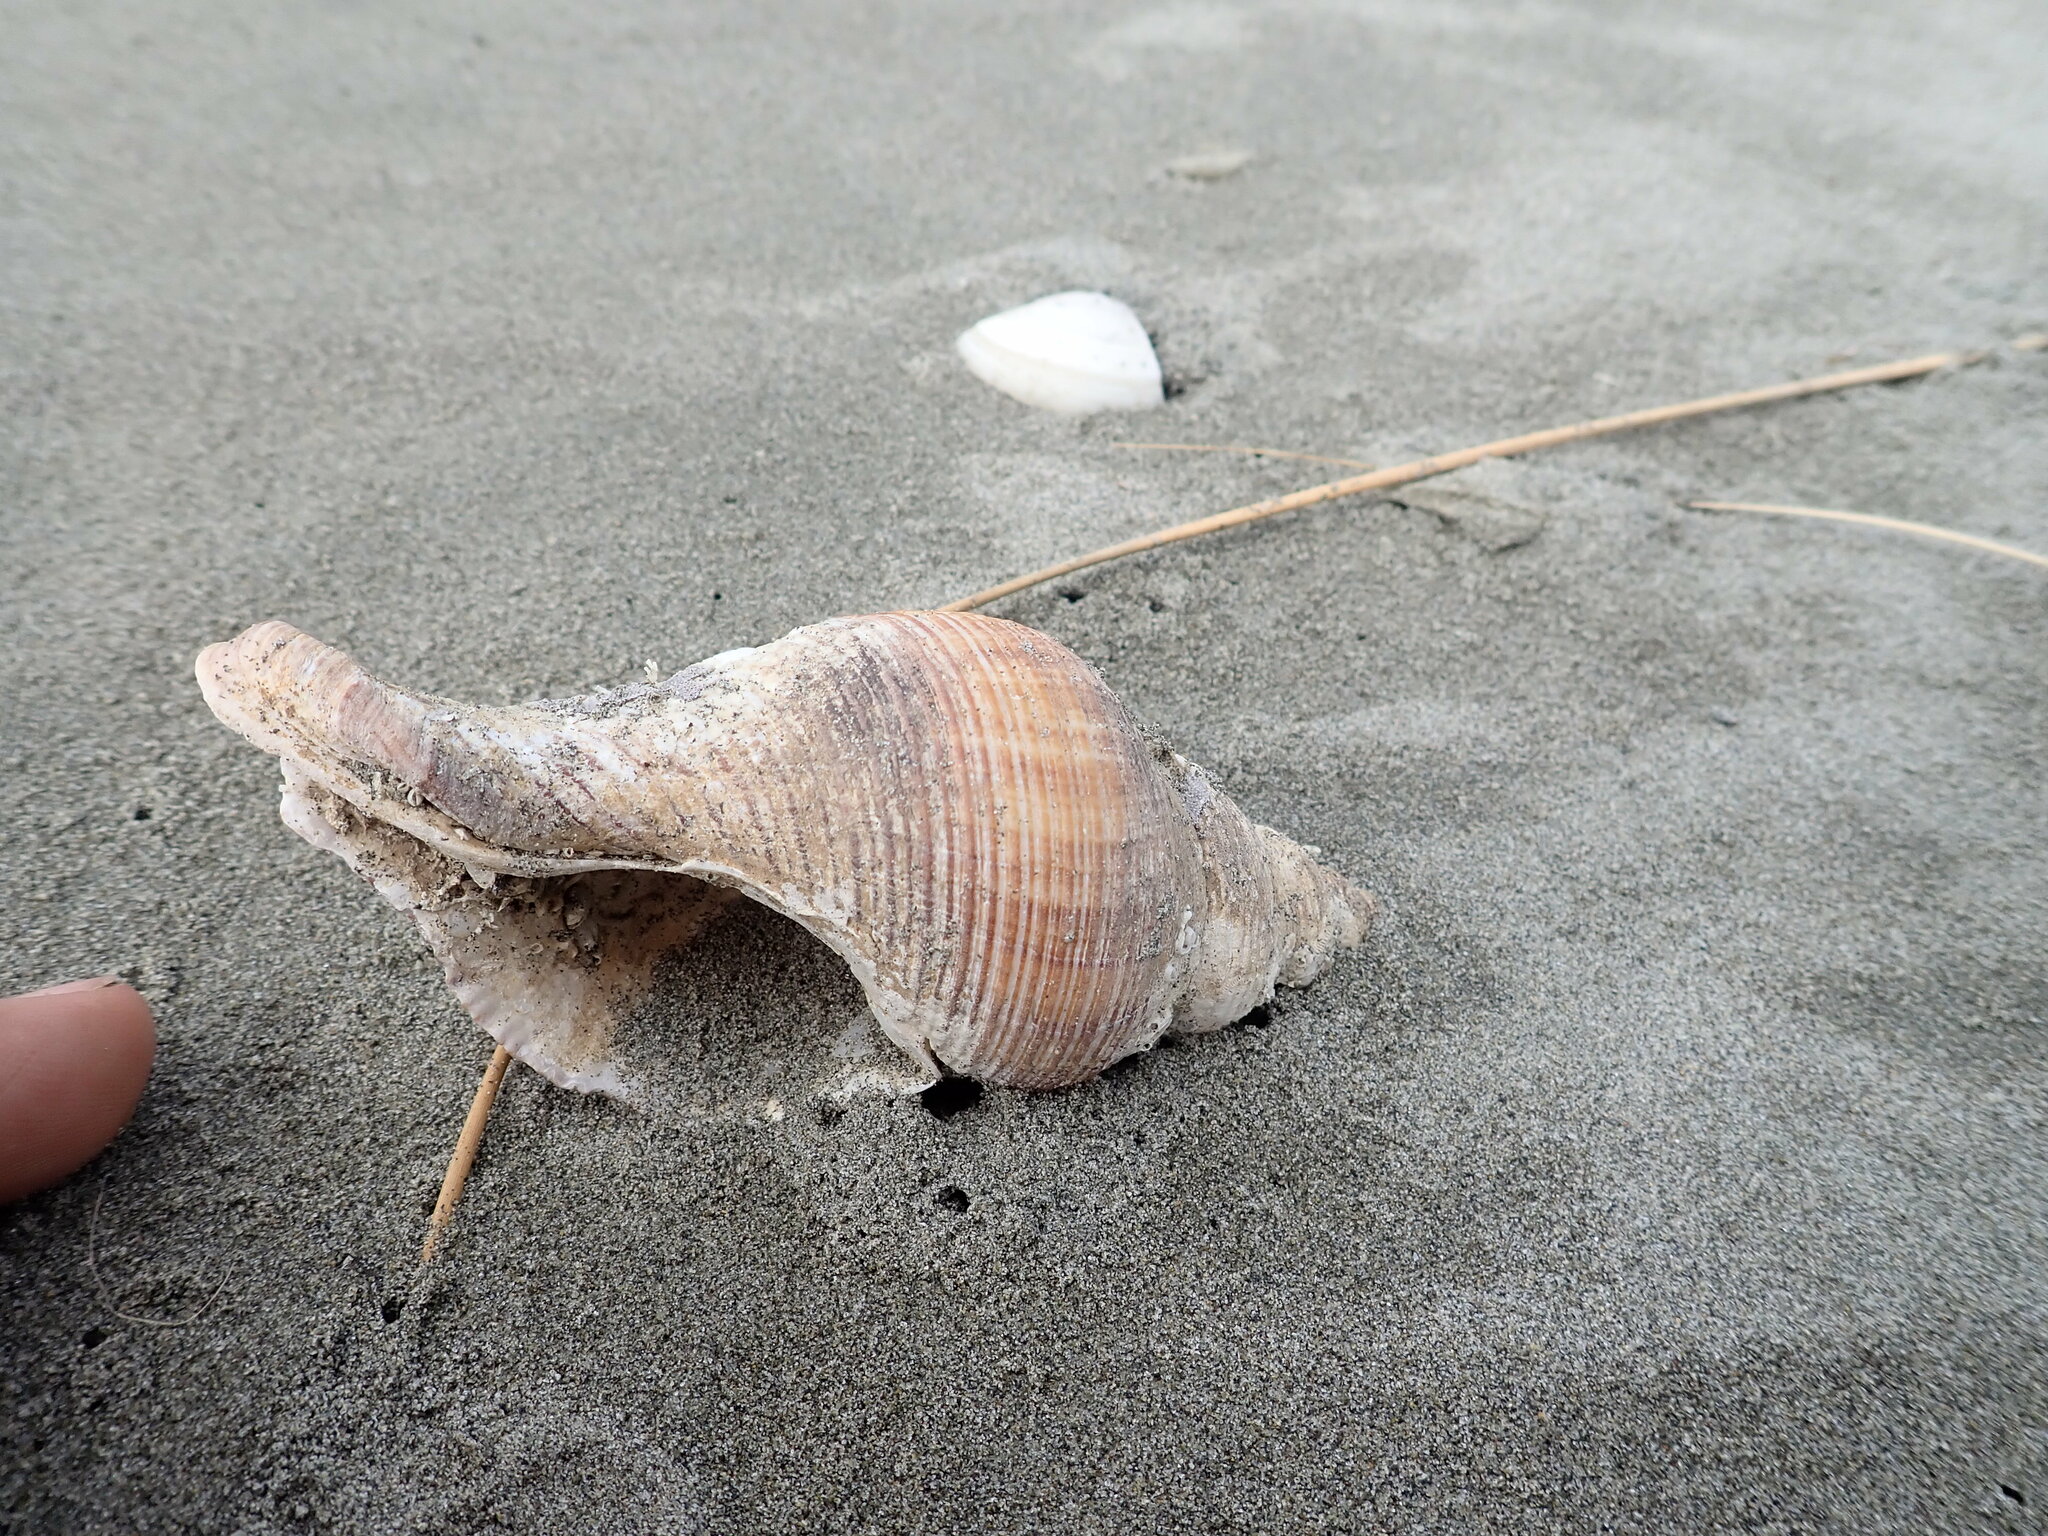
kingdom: Animalia
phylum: Mollusca
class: Gastropoda
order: Neogastropoda
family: Austrosiphonidae
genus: Penion
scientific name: Penion sulcatus
